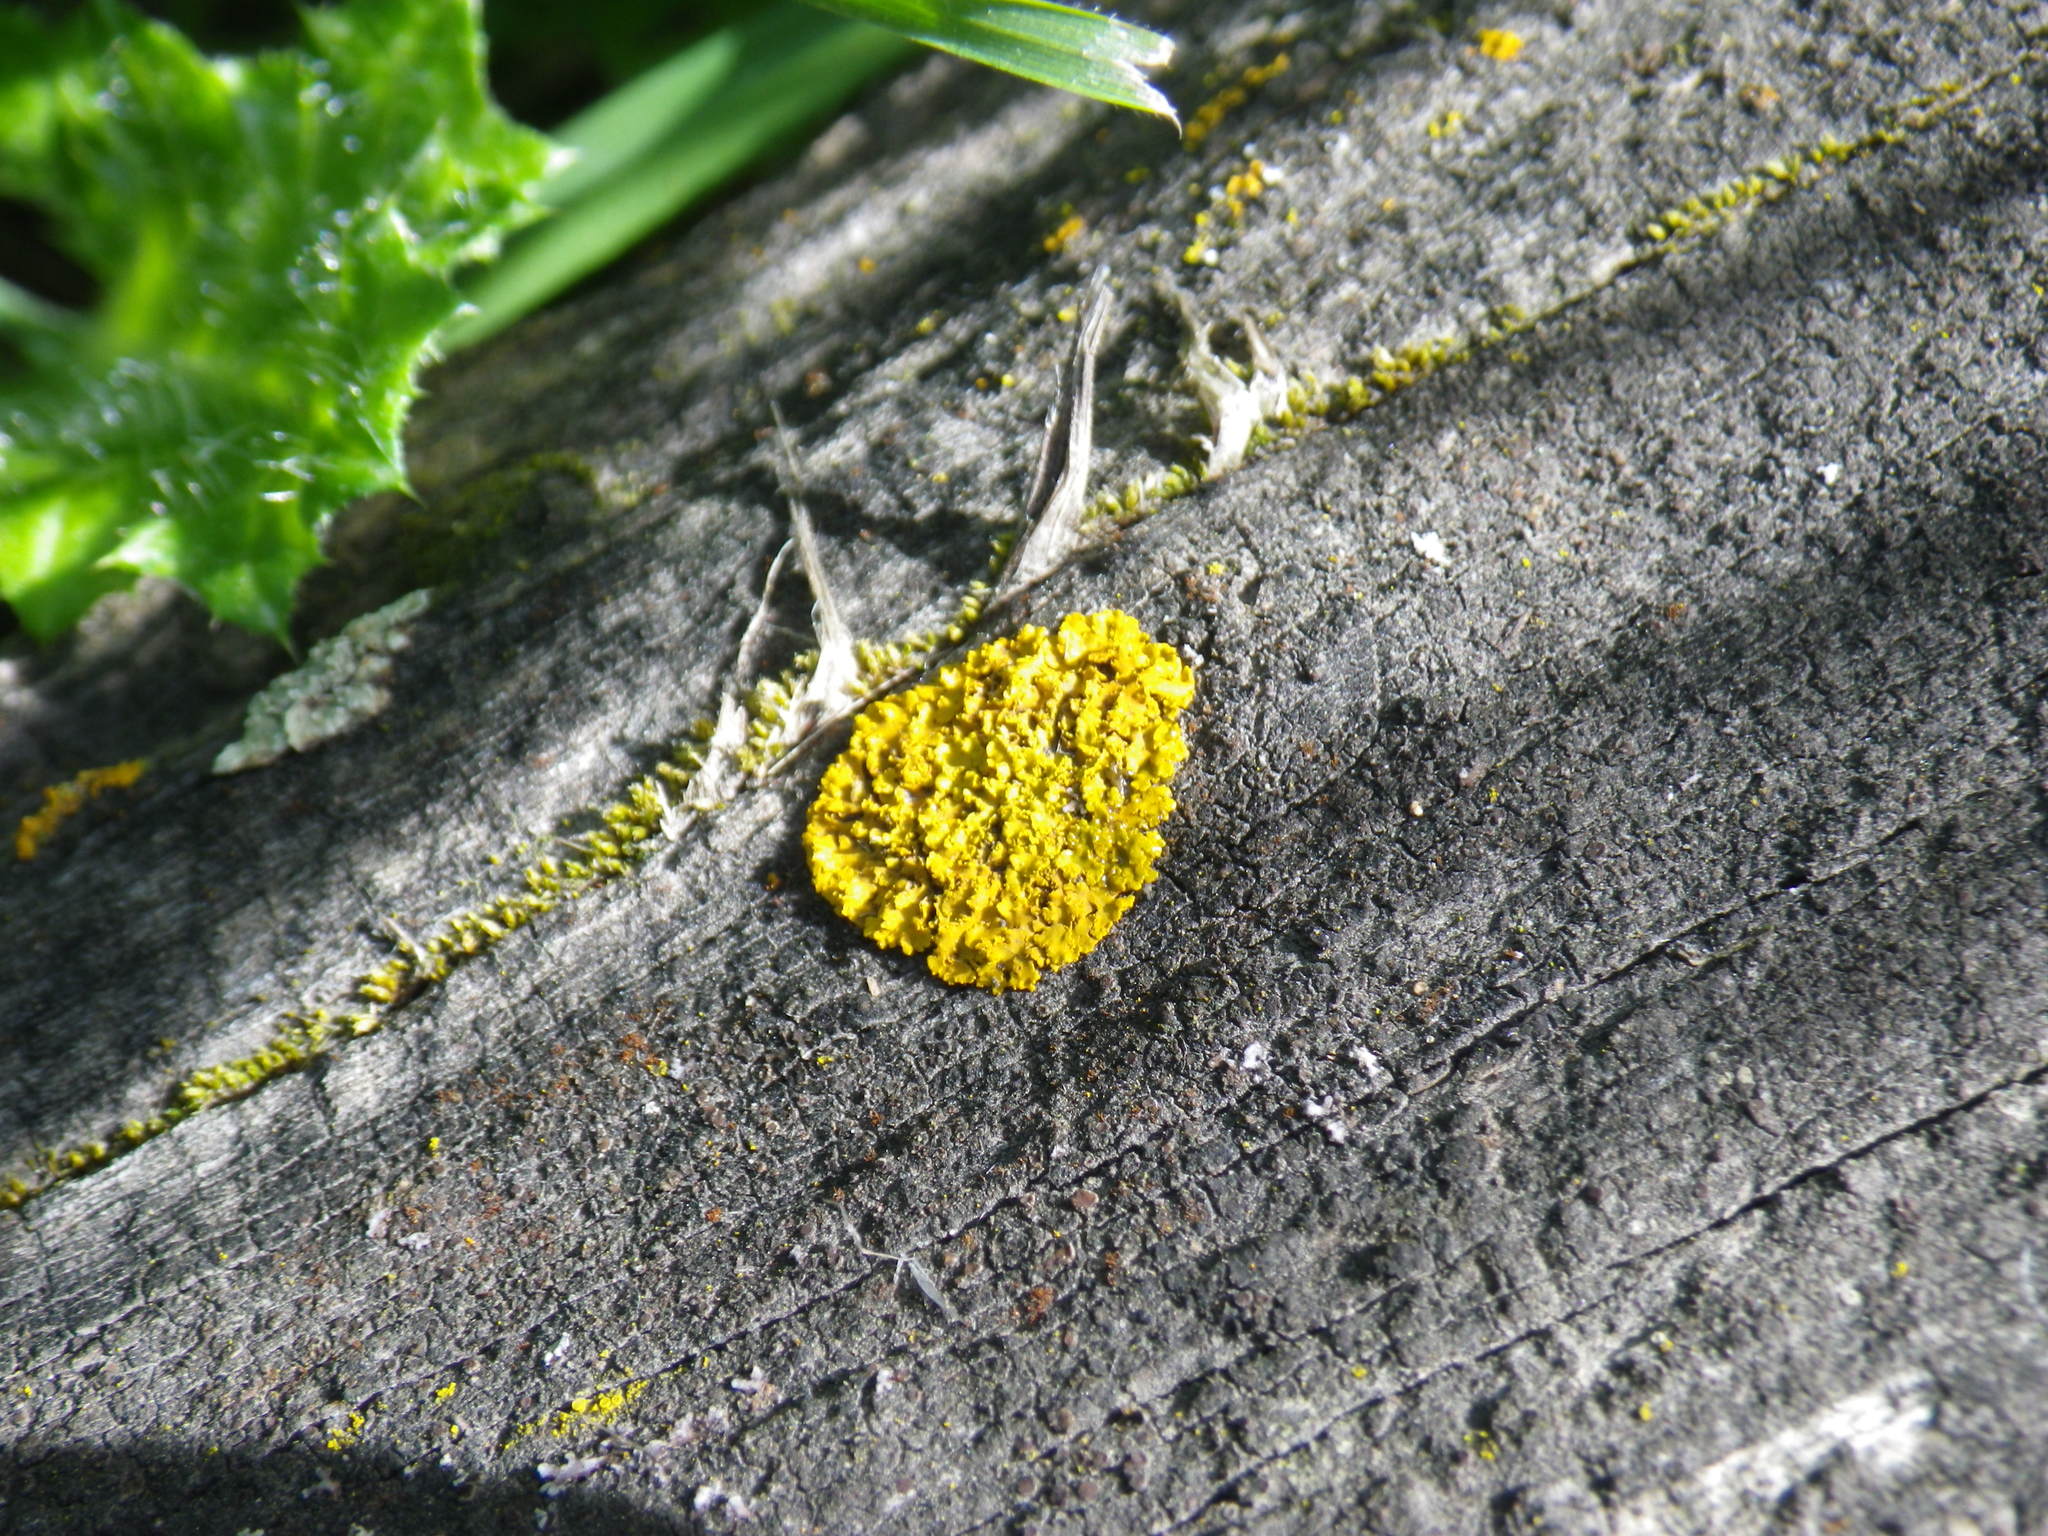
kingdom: Fungi
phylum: Ascomycota
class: Lecanoromycetes
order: Teloschistales
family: Teloschistaceae
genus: Xanthoria
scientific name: Xanthoria elegans
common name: Elegant sunburst lichen
